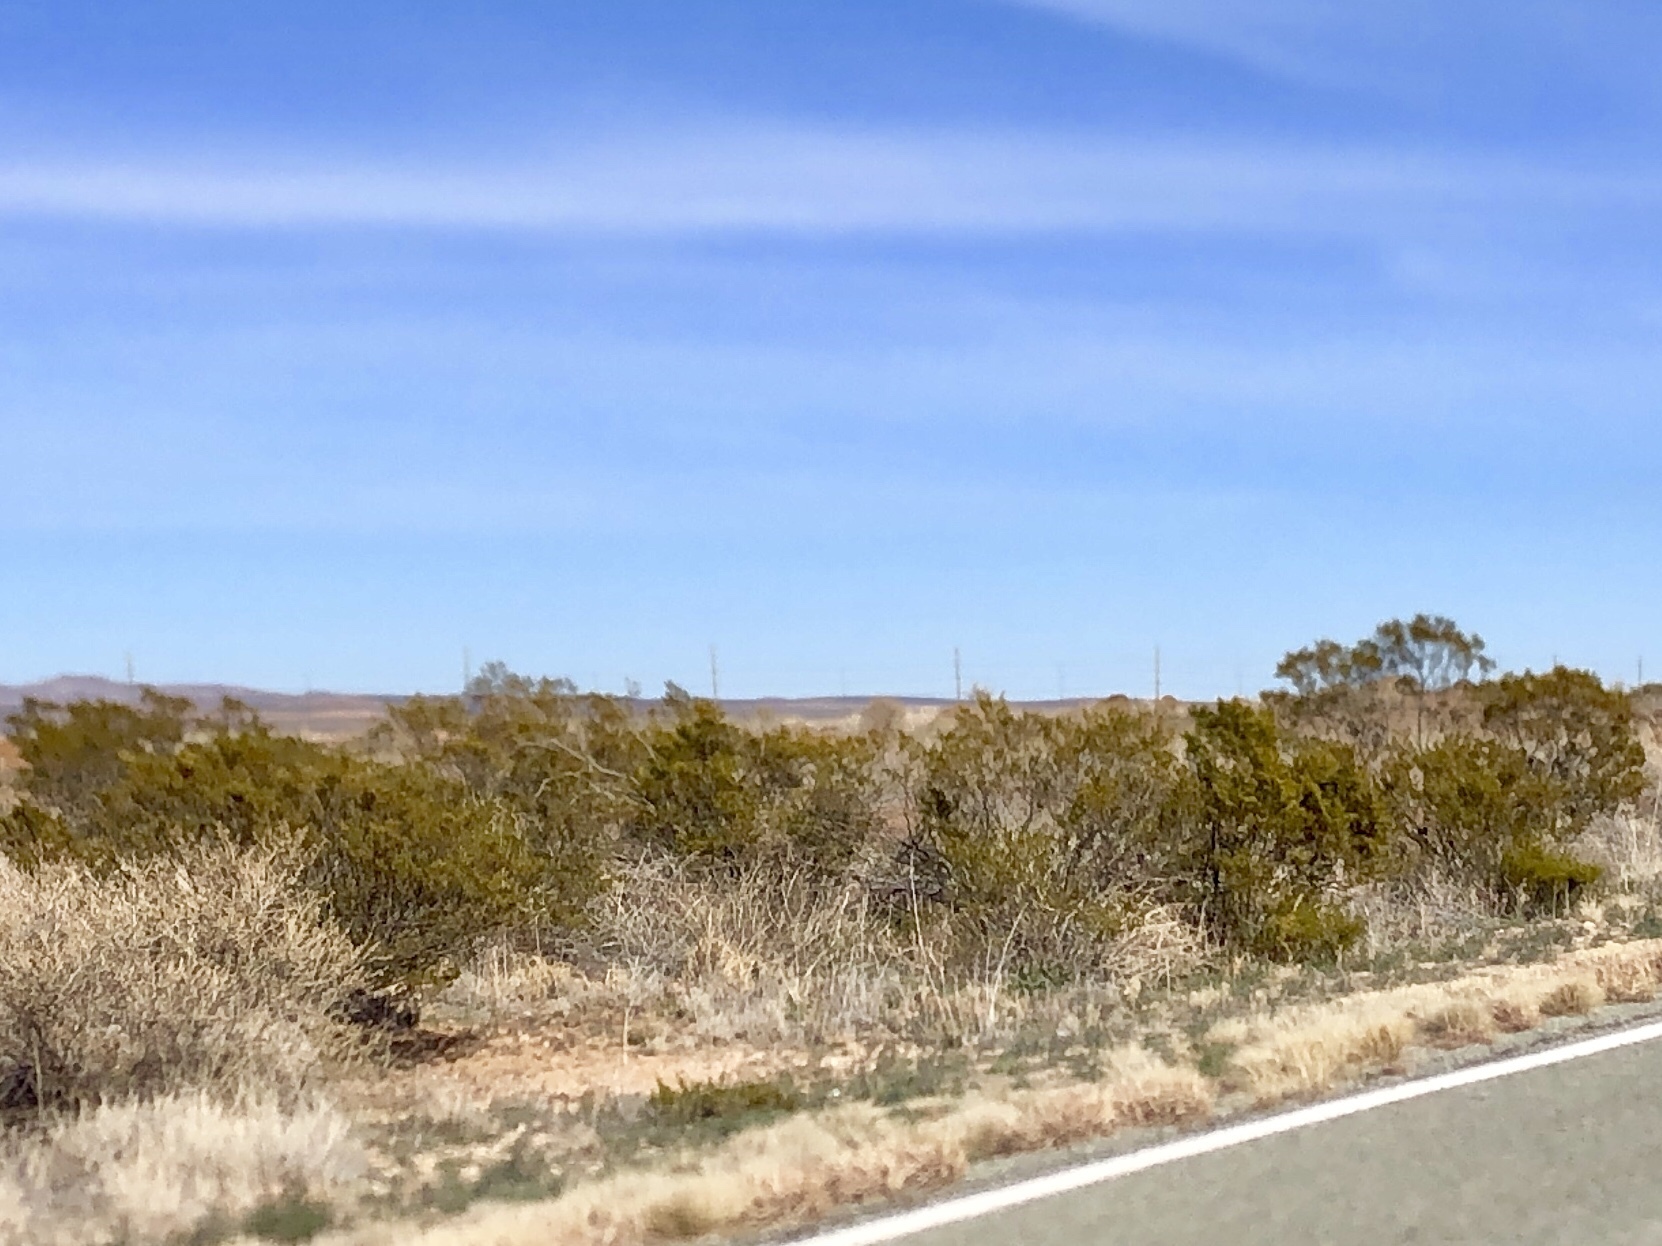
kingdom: Plantae
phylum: Tracheophyta
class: Magnoliopsida
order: Zygophyllales
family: Zygophyllaceae
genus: Larrea
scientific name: Larrea tridentata
